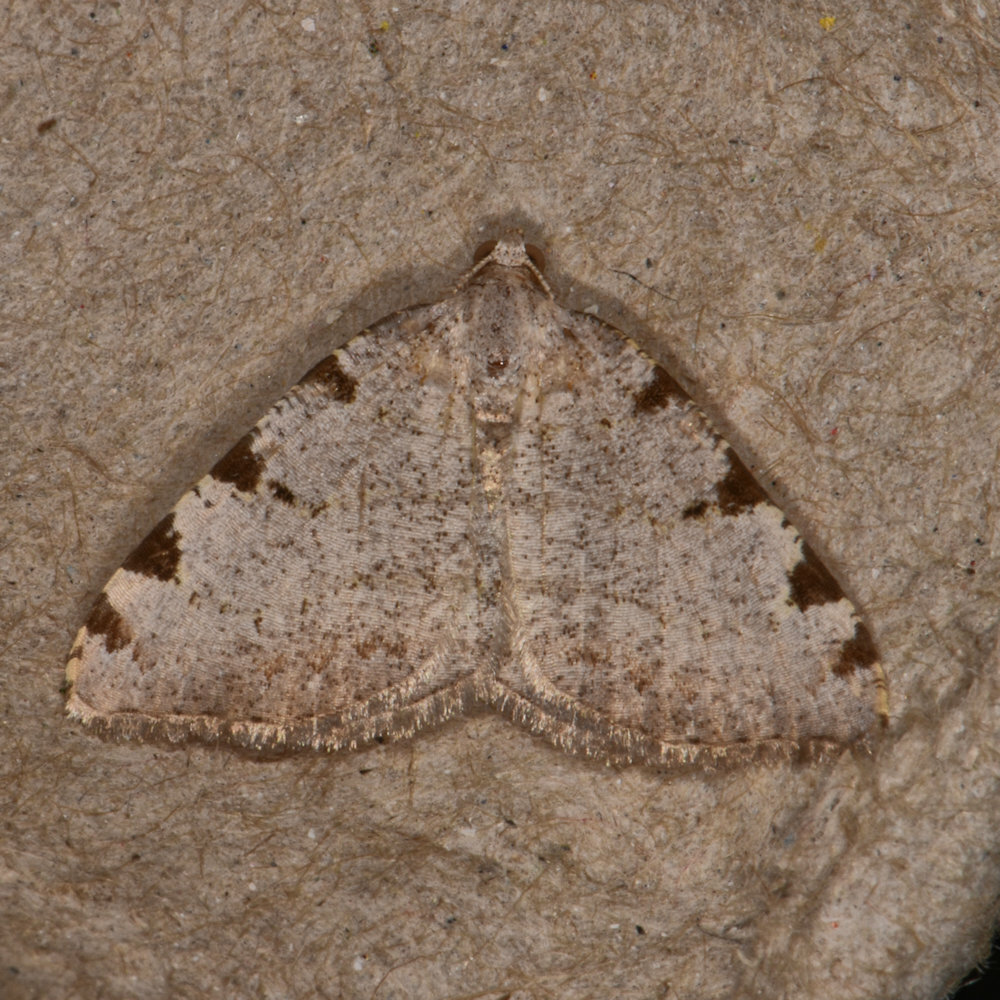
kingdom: Animalia
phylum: Arthropoda
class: Insecta
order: Lepidoptera
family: Geometridae
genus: Macaria
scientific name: Macaria coortaria
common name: Four-spotted granite
